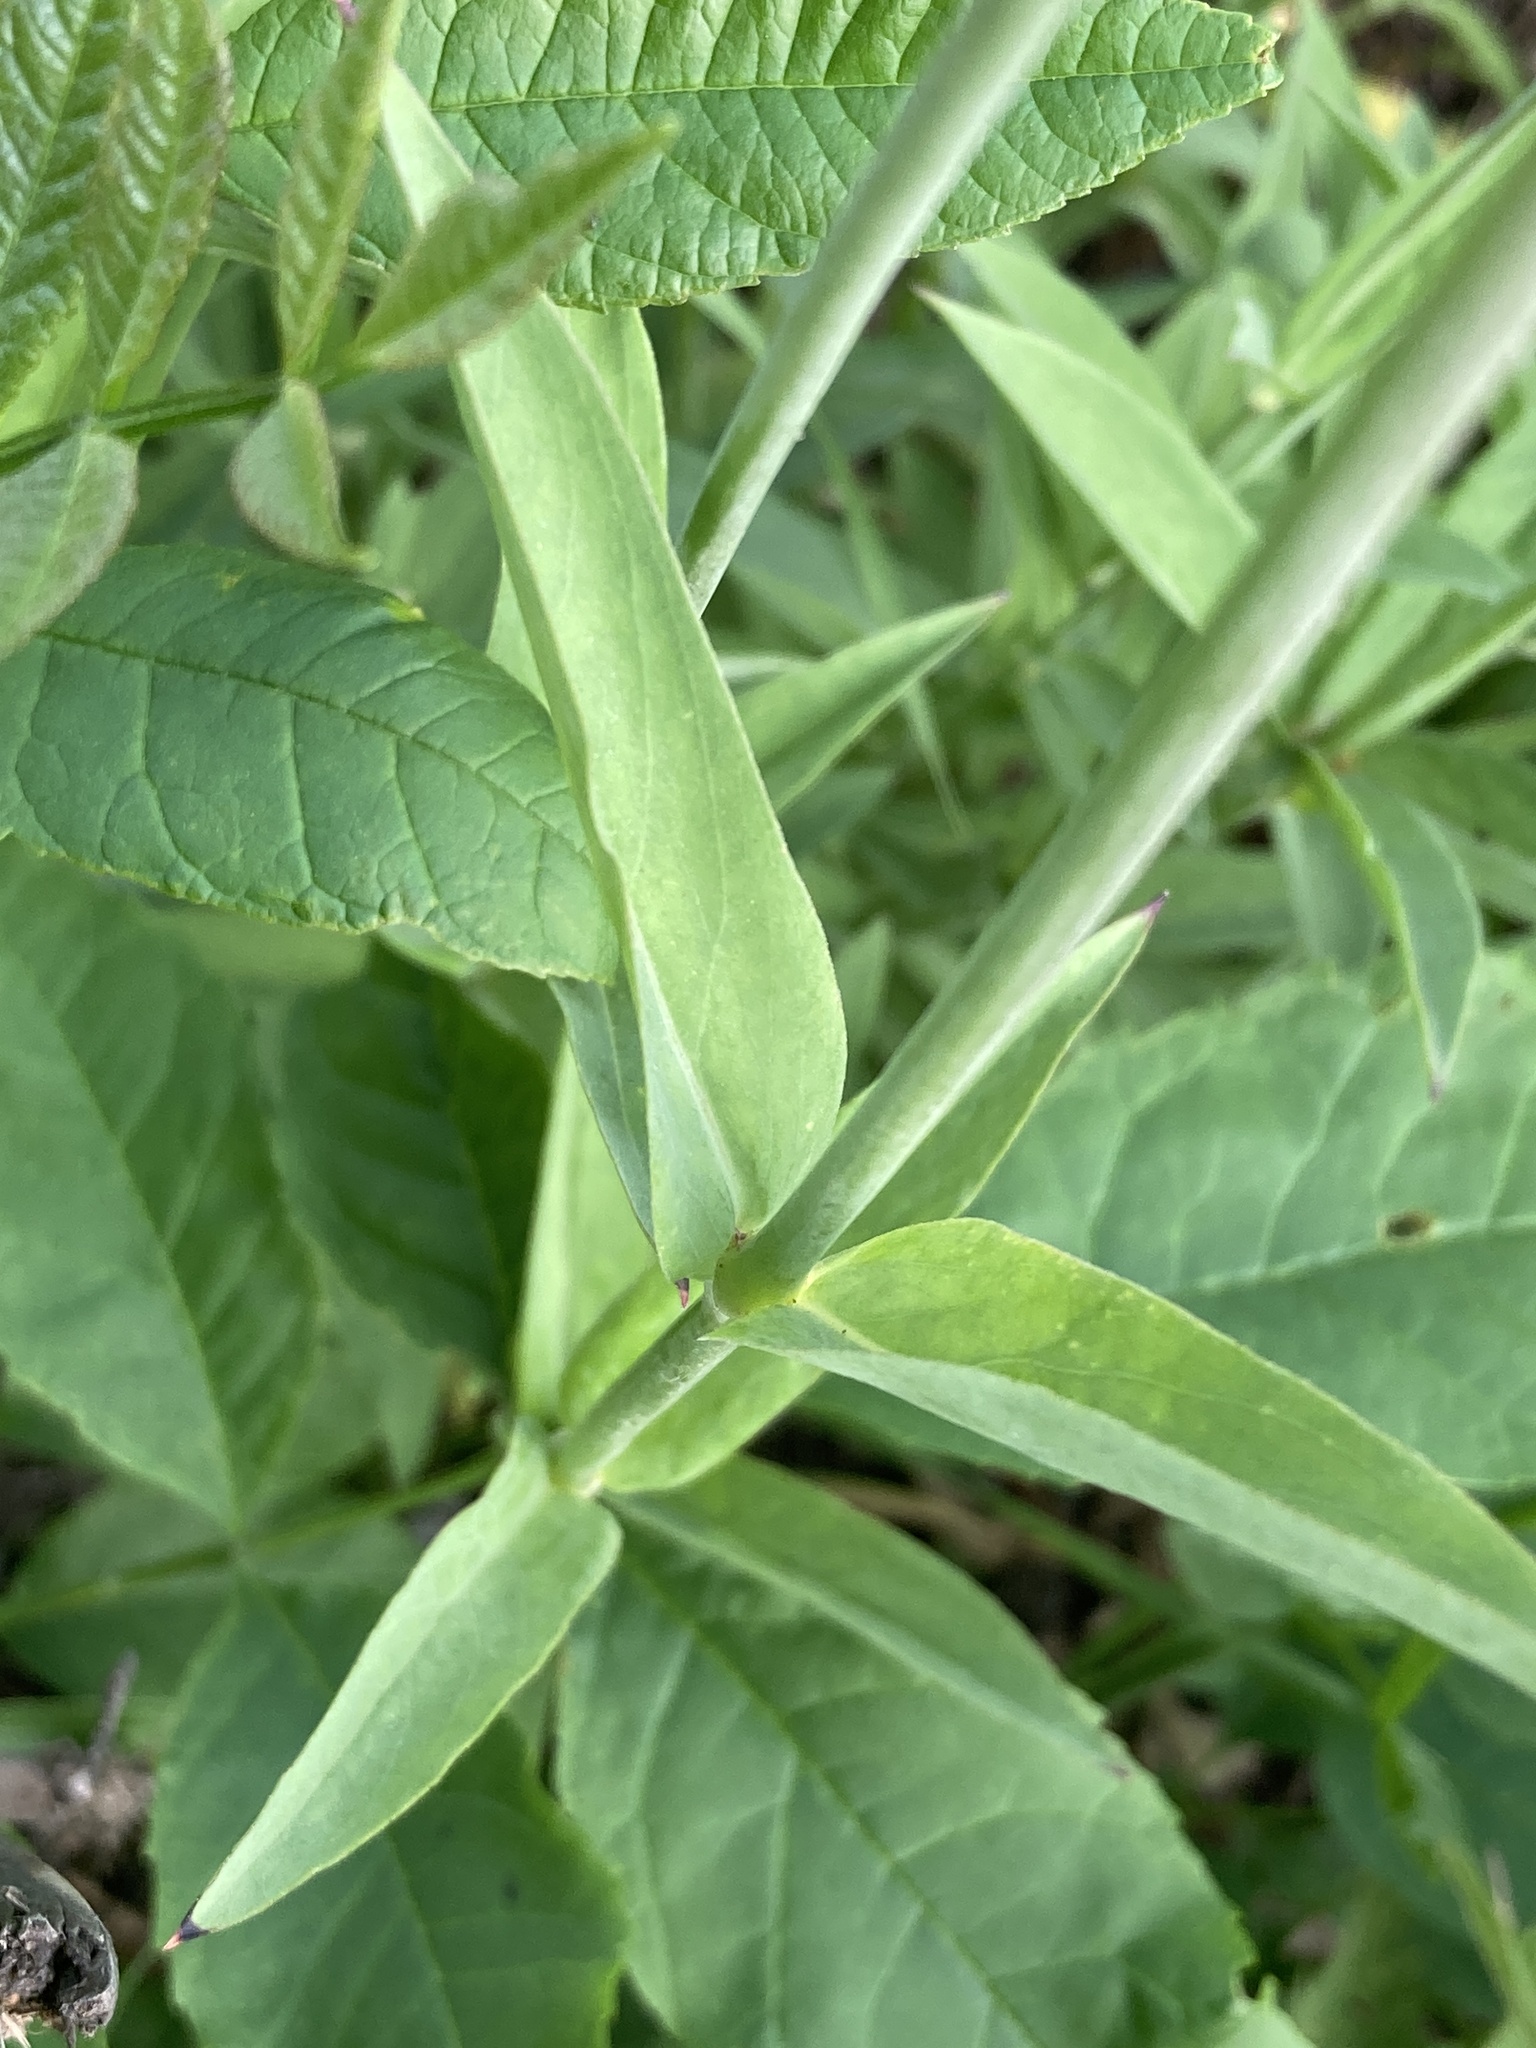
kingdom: Plantae
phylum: Tracheophyta
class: Magnoliopsida
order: Caryophyllales
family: Caryophyllaceae
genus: Silene
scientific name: Silene vulgaris
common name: Bladder campion
